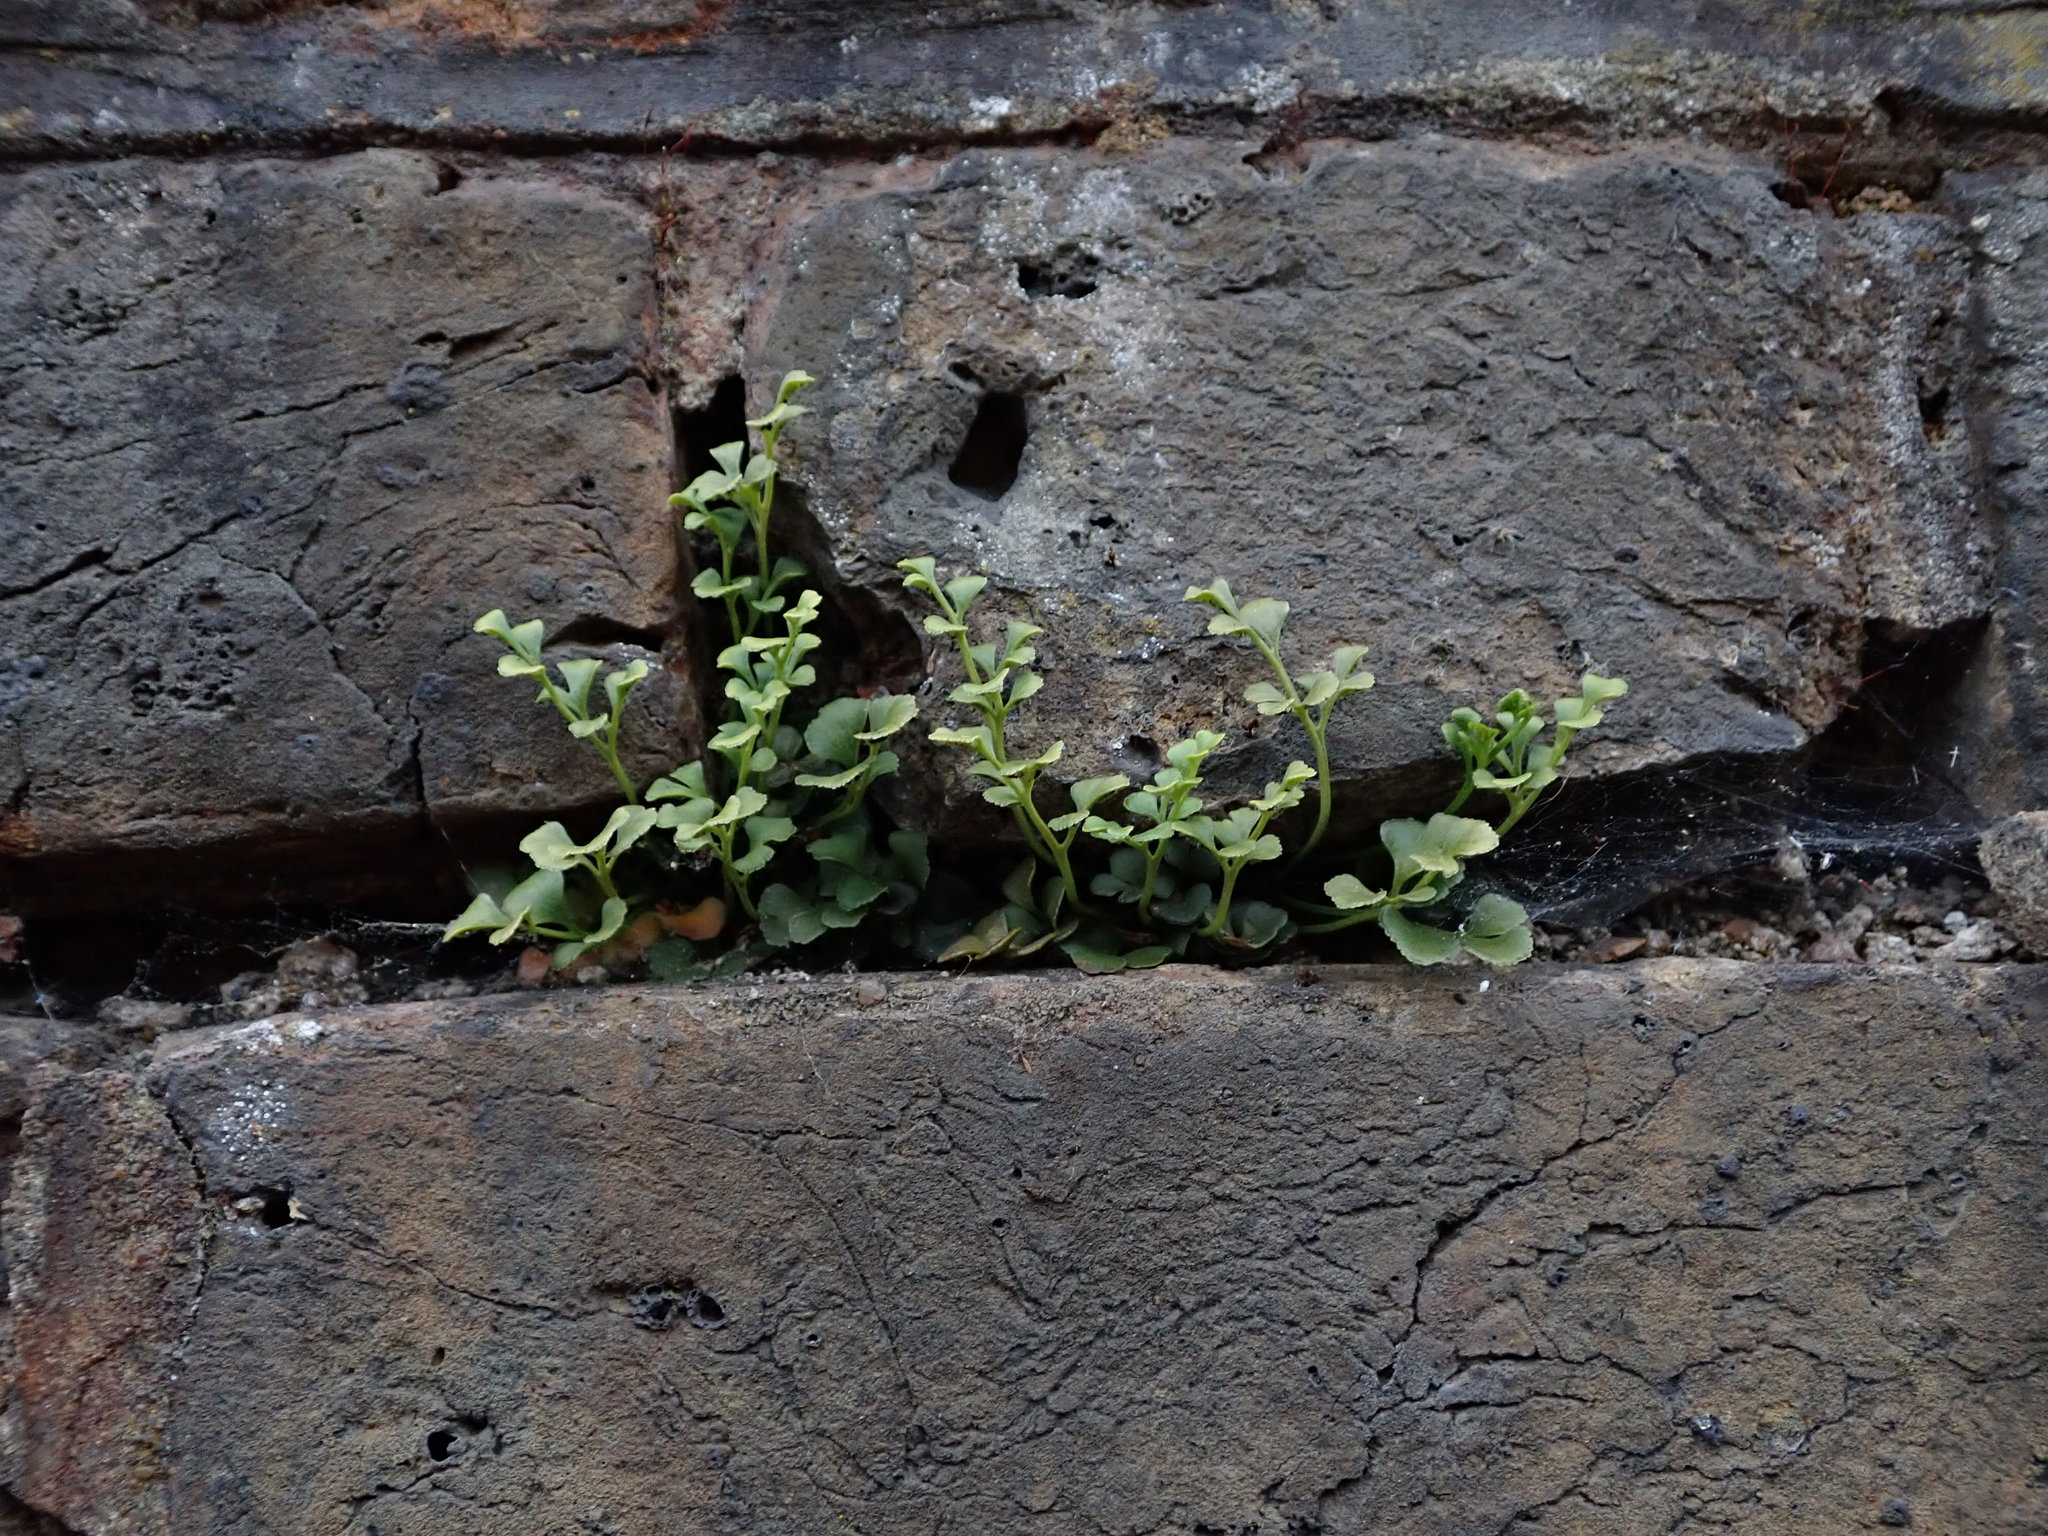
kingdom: Plantae
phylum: Tracheophyta
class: Polypodiopsida
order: Polypodiales
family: Aspleniaceae
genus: Asplenium
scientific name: Asplenium ruta-muraria
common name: Wall-rue
